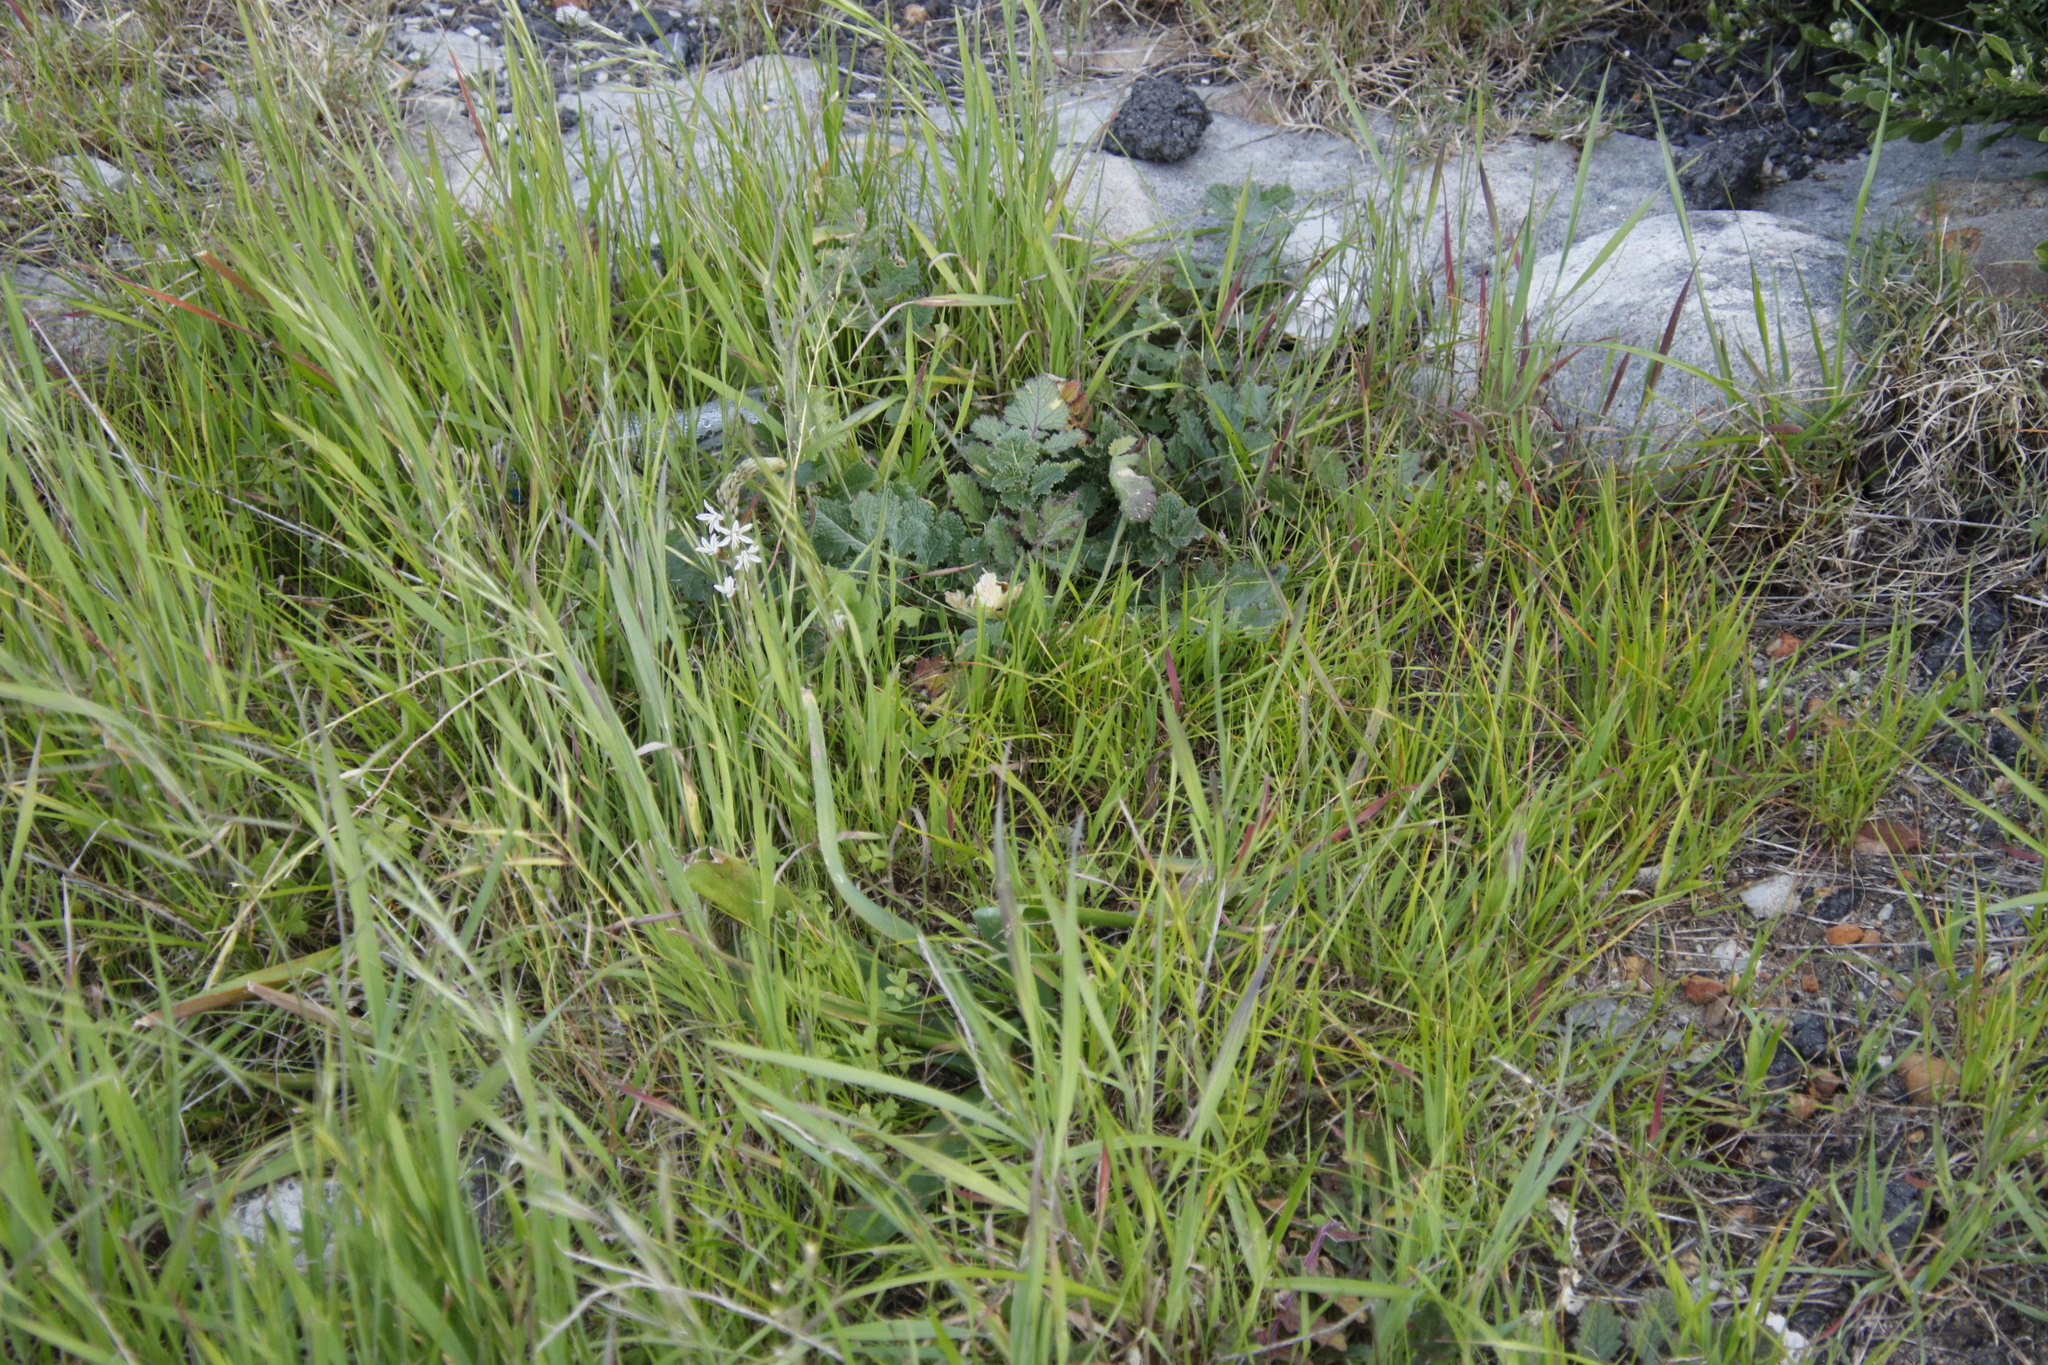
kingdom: Plantae
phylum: Tracheophyta
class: Liliopsida
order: Asparagales
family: Asphodelaceae
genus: Trachyandra
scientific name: Trachyandra ciliata
